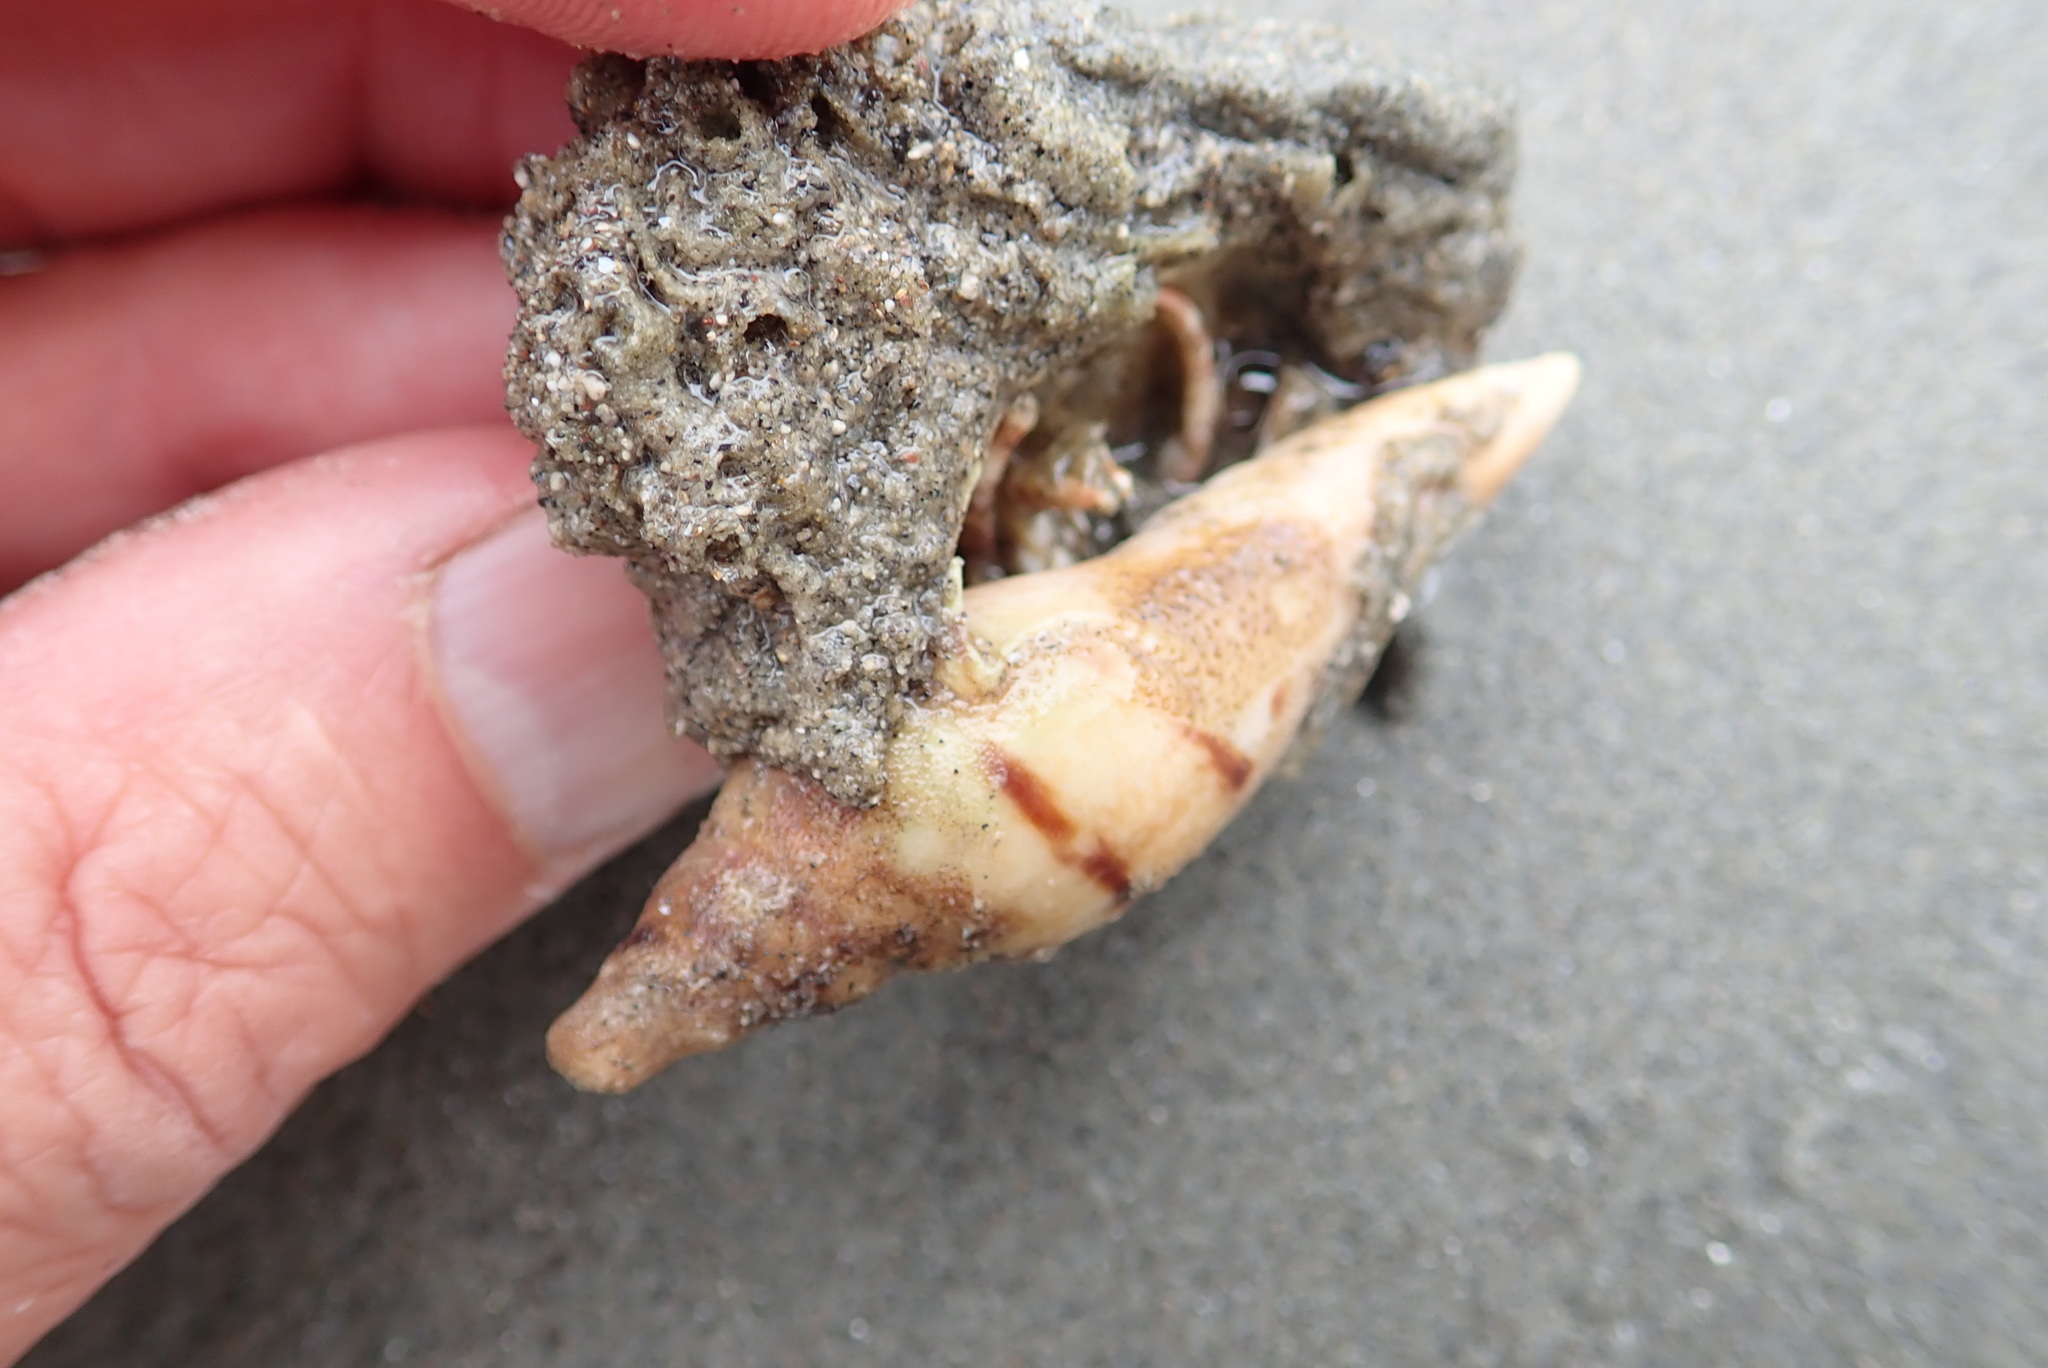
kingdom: Animalia
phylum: Mollusca
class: Gastropoda
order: Neogastropoda
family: Volutidae
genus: Alcithoe
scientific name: Alcithoe arabica
